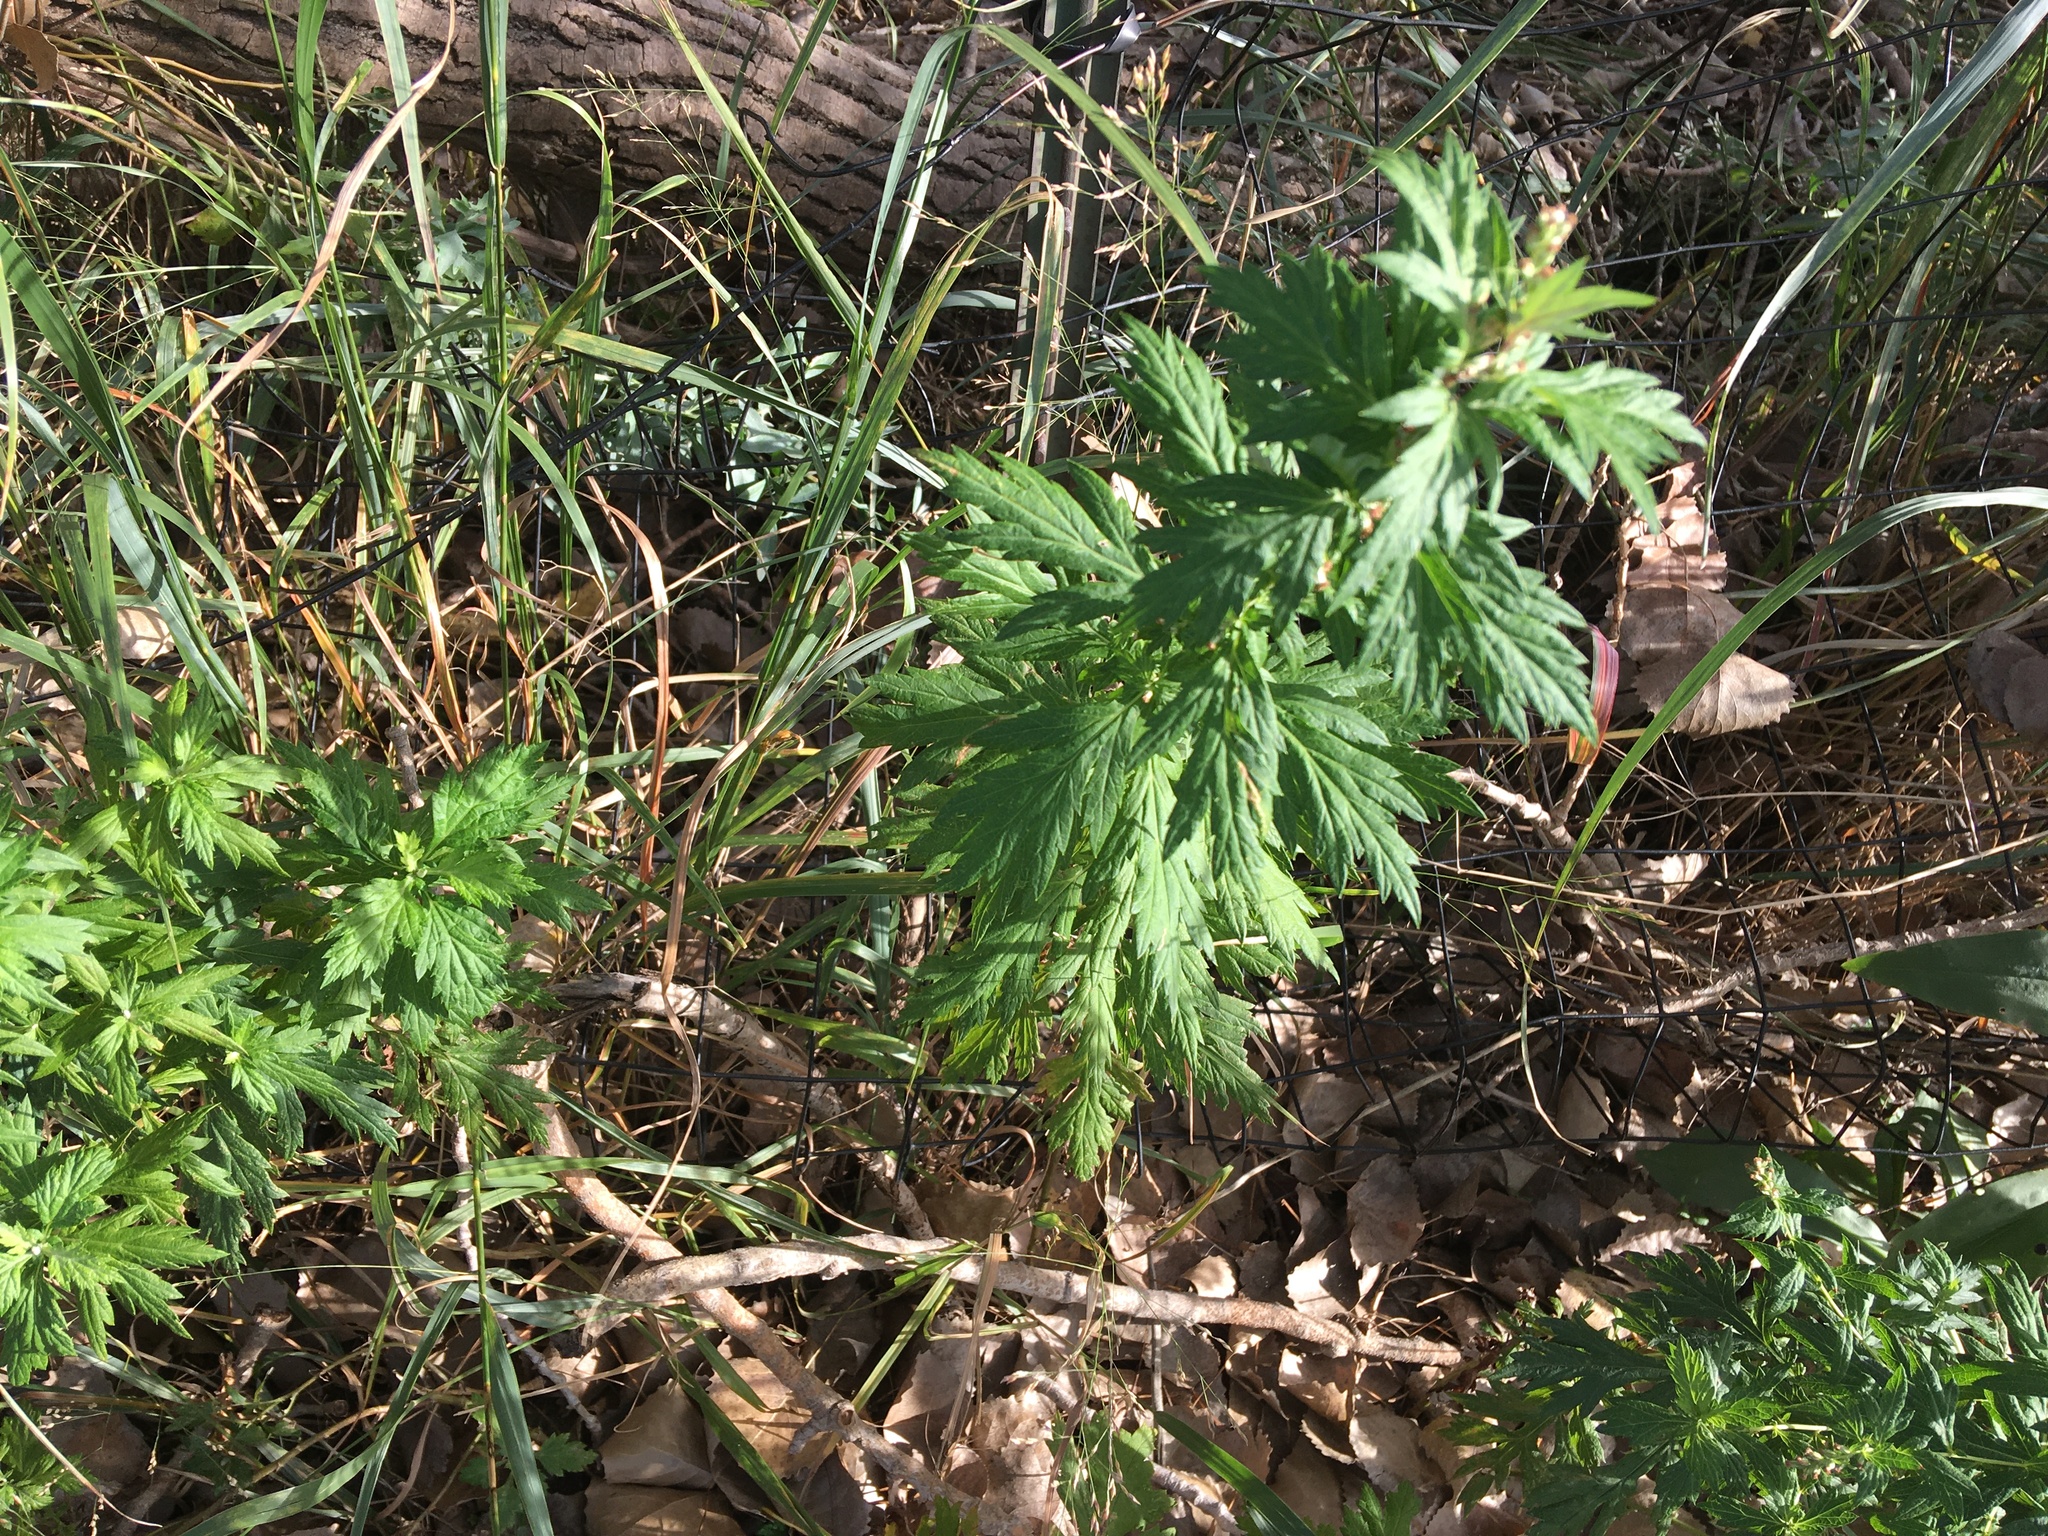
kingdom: Plantae
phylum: Tracheophyta
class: Magnoliopsida
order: Asterales
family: Asteraceae
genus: Artemisia
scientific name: Artemisia vulgaris
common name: Mugwort
